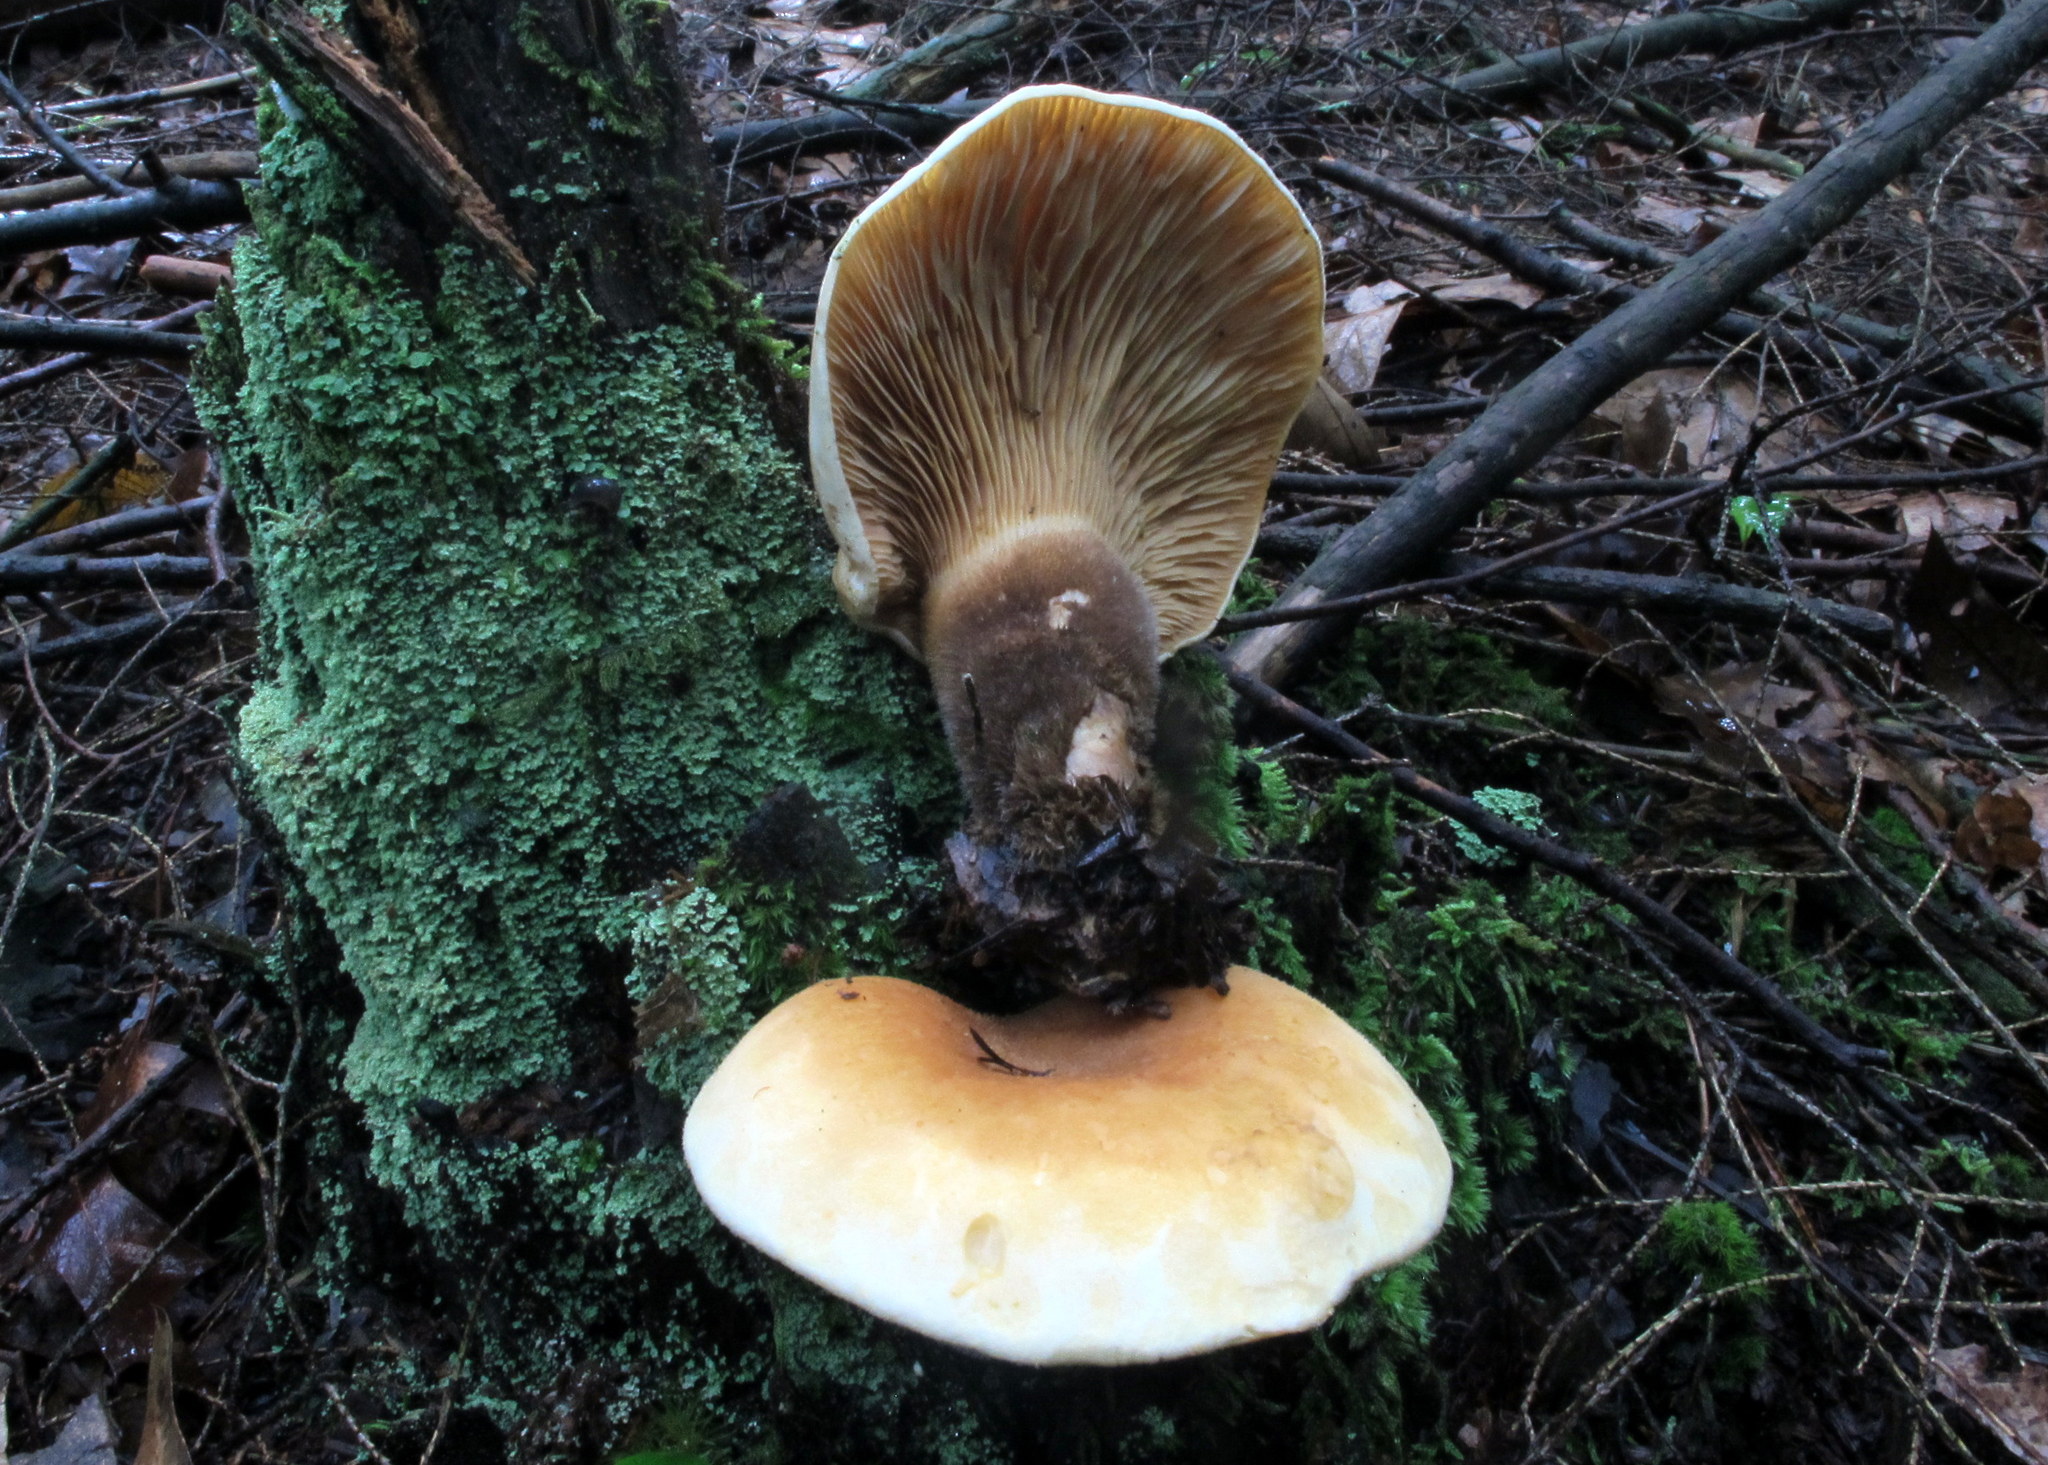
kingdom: Fungi
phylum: Basidiomycota
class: Agaricomycetes
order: Boletales
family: Tapinellaceae
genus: Tapinella
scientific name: Tapinella atrotomentosa
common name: Velvet rollrim
